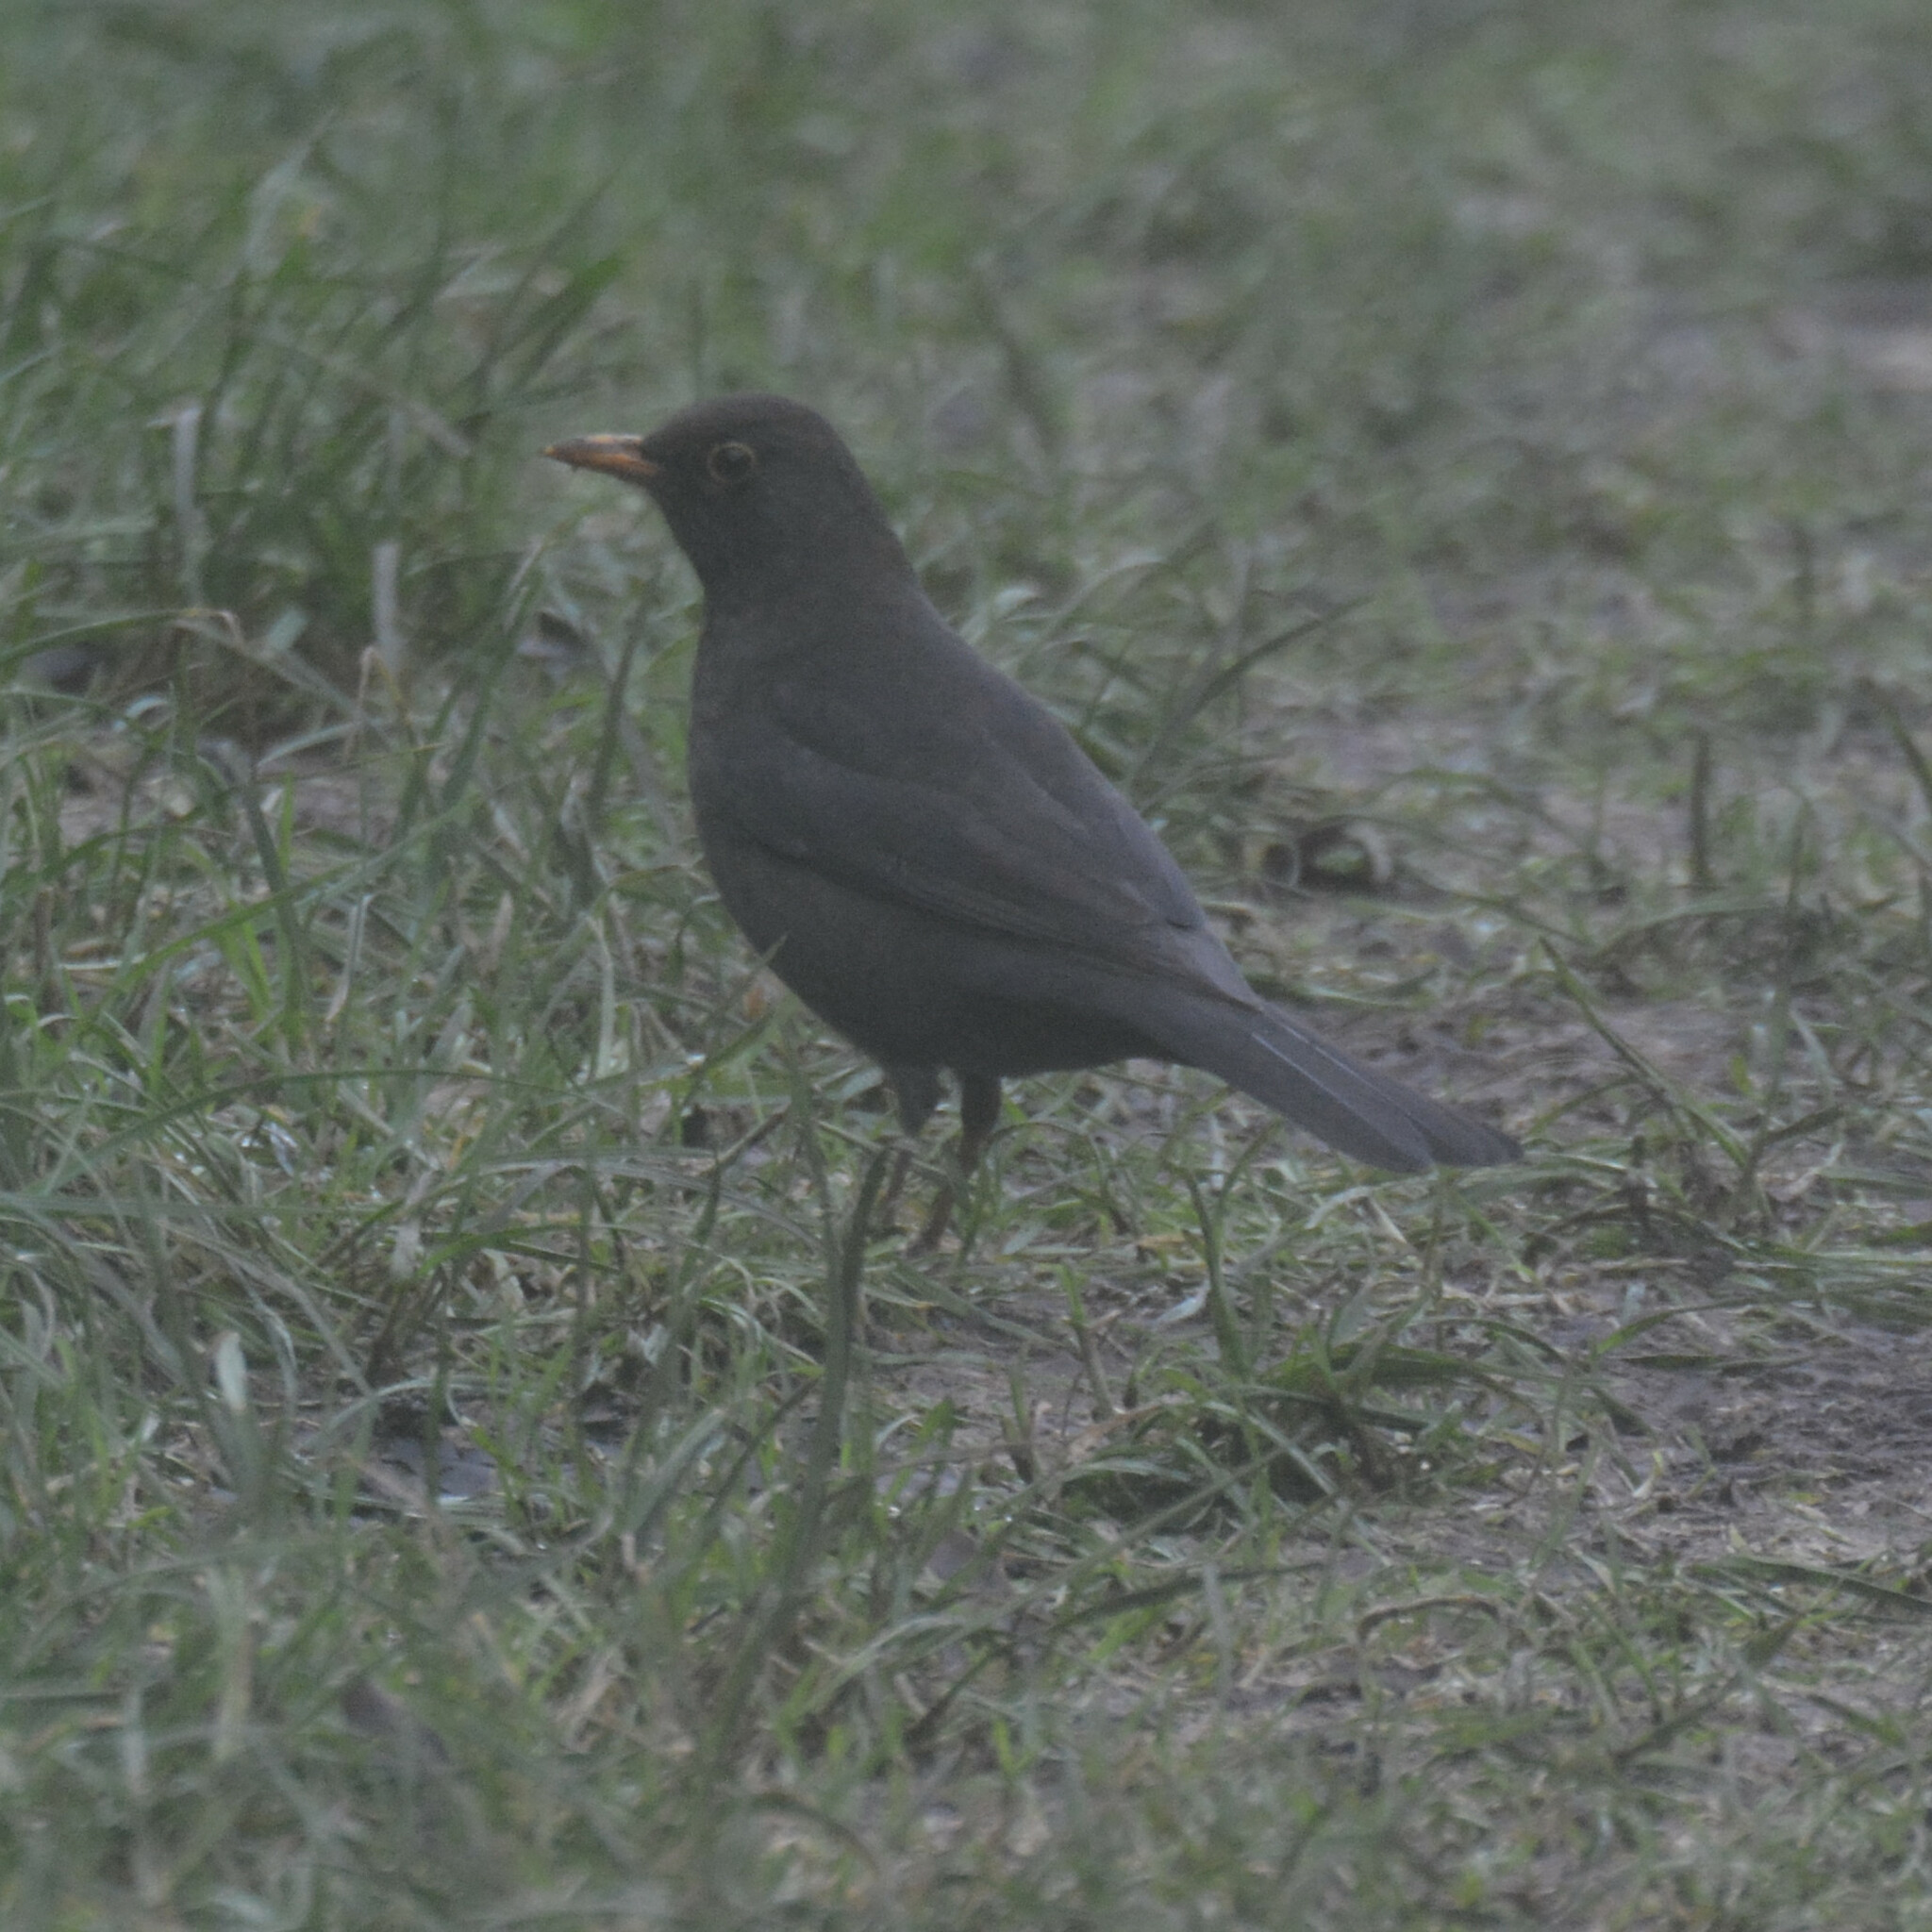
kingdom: Animalia
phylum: Chordata
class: Aves
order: Passeriformes
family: Turdidae
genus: Turdus
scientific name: Turdus merula
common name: Common blackbird
